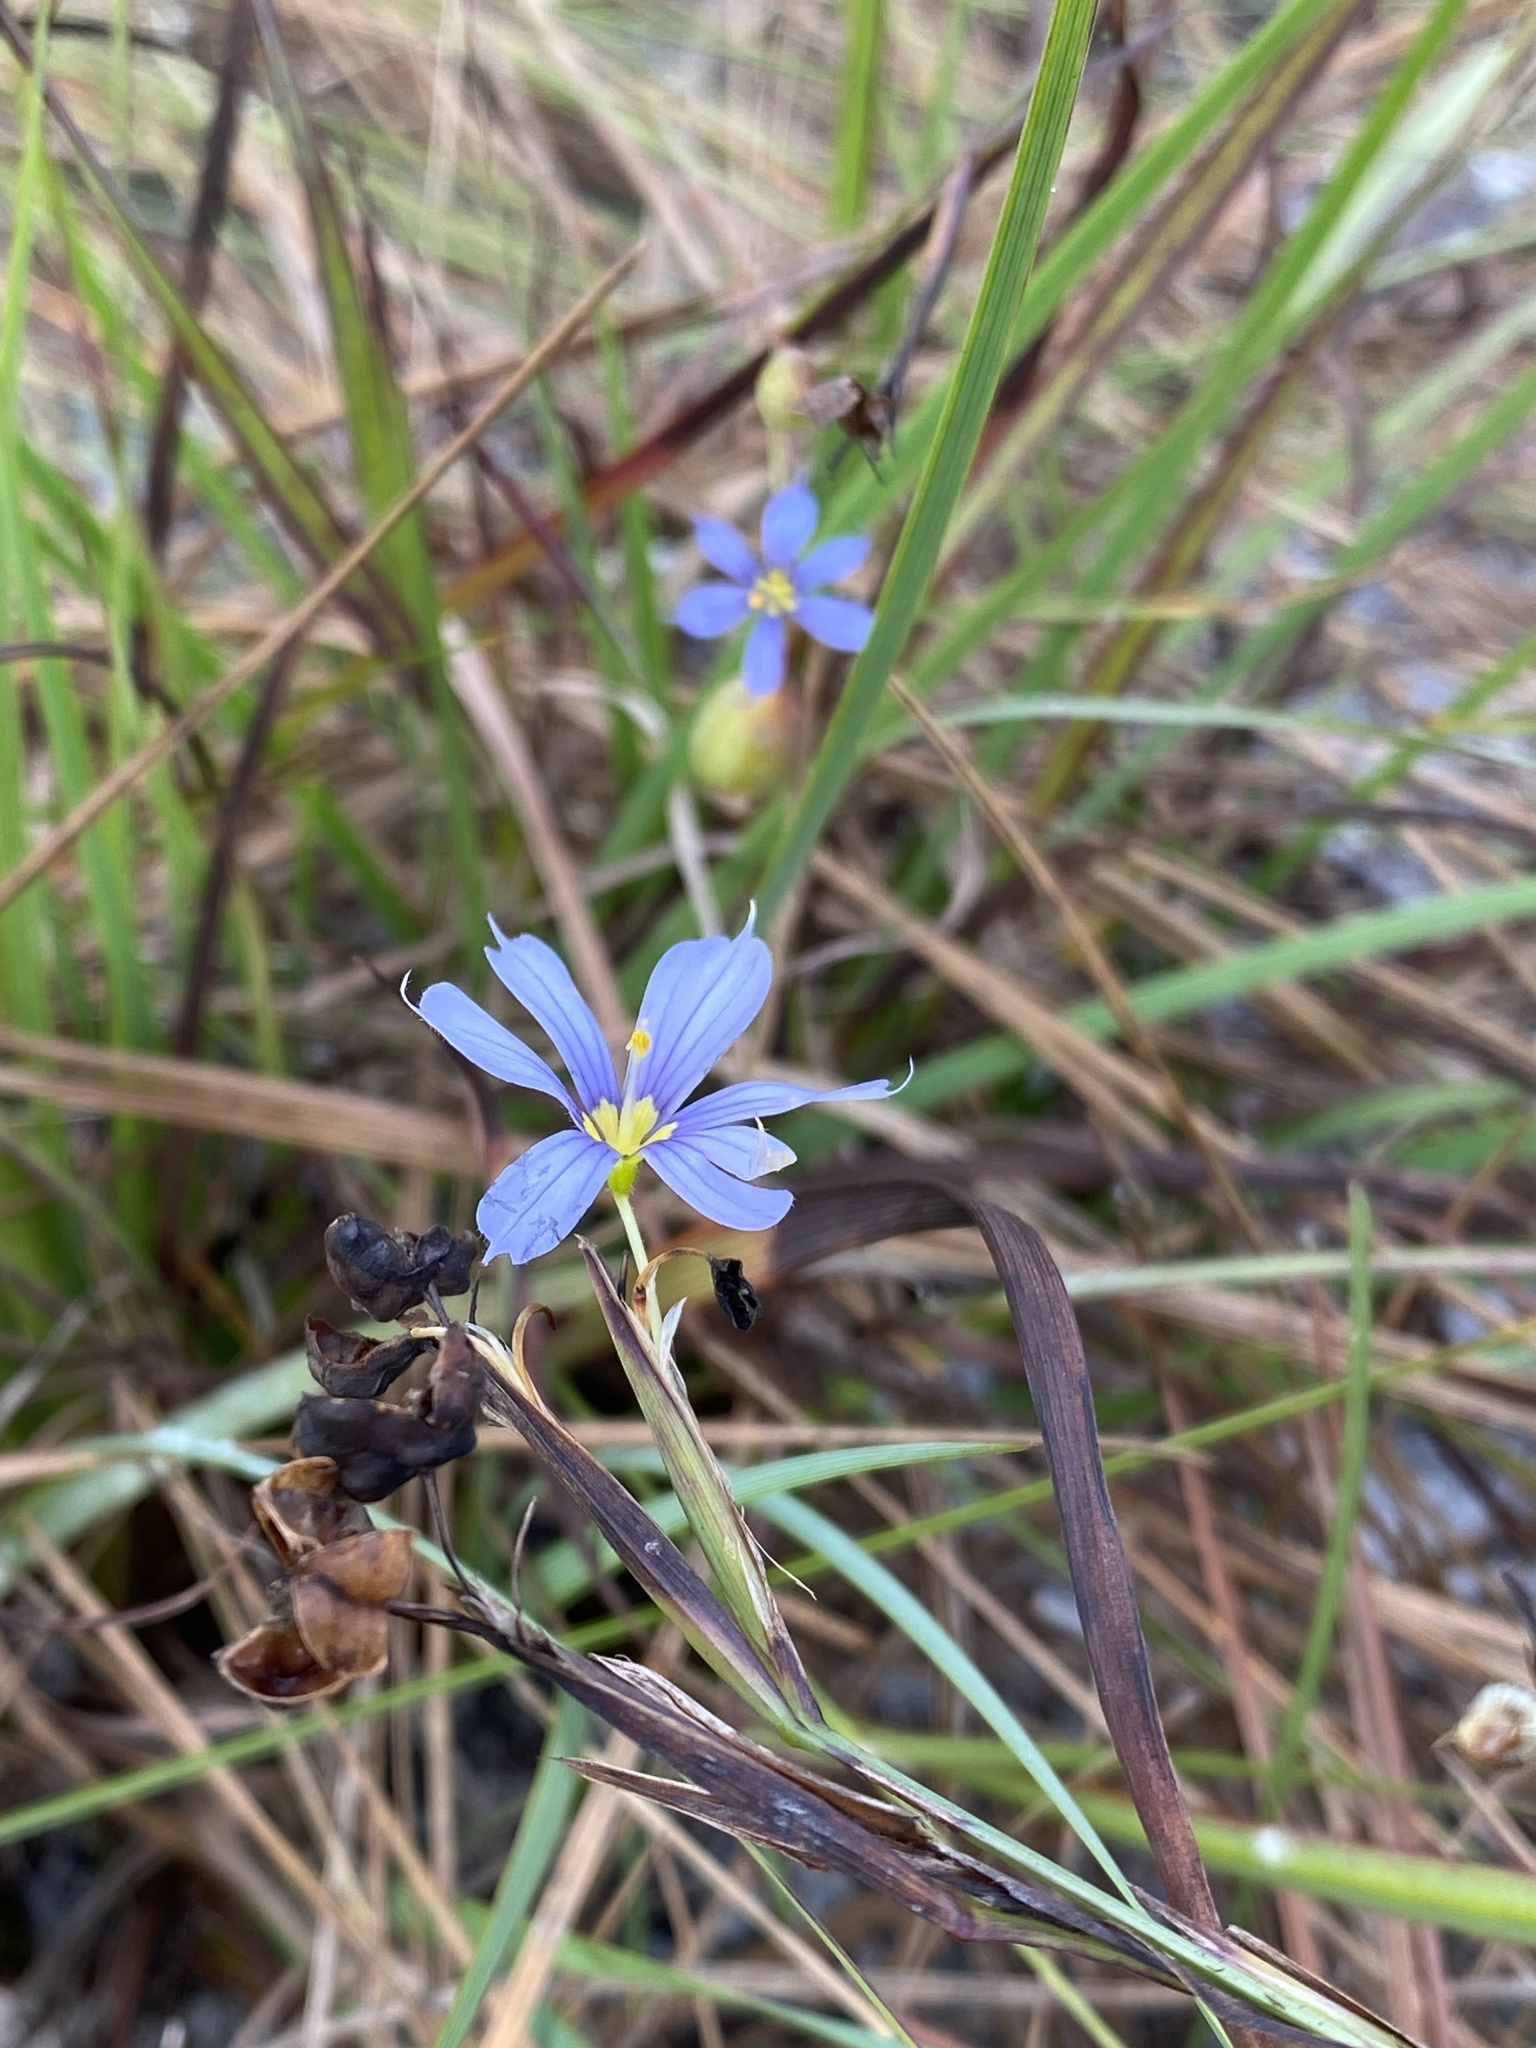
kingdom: Plantae
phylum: Tracheophyta
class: Liliopsida
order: Asparagales
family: Iridaceae
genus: Sisyrinchium
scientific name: Sisyrinchium xerophyllum
